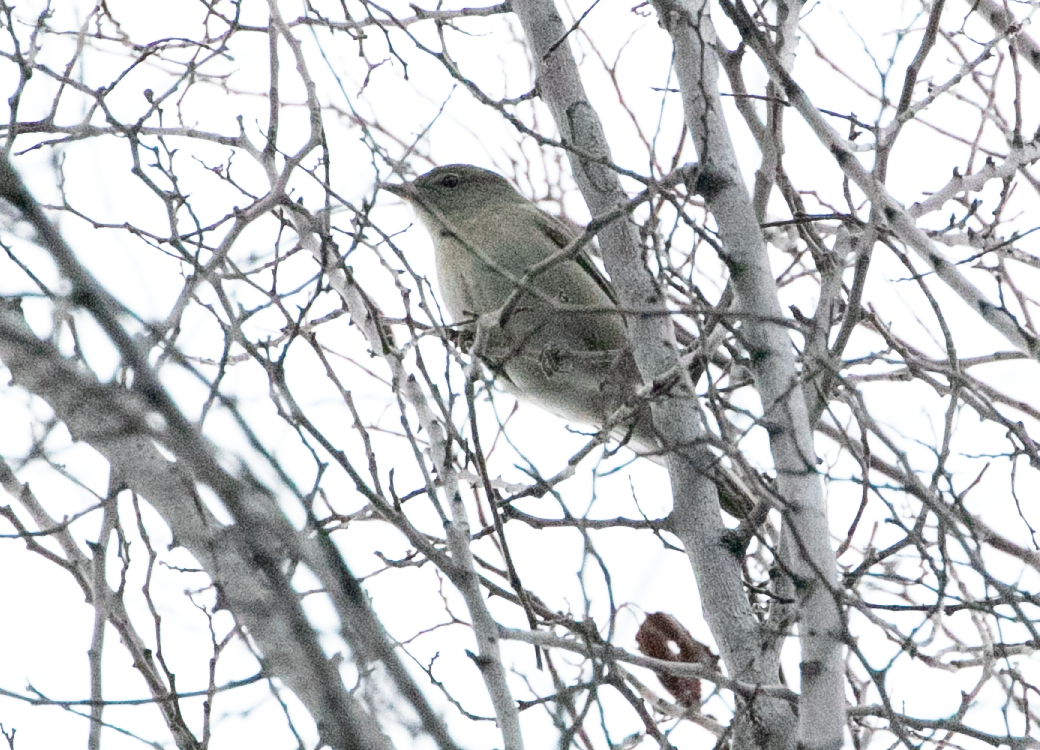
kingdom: Animalia
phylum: Chordata
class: Aves
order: Passeriformes
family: Sylviidae
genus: Sylvia
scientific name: Sylvia borin
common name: Garden warbler
